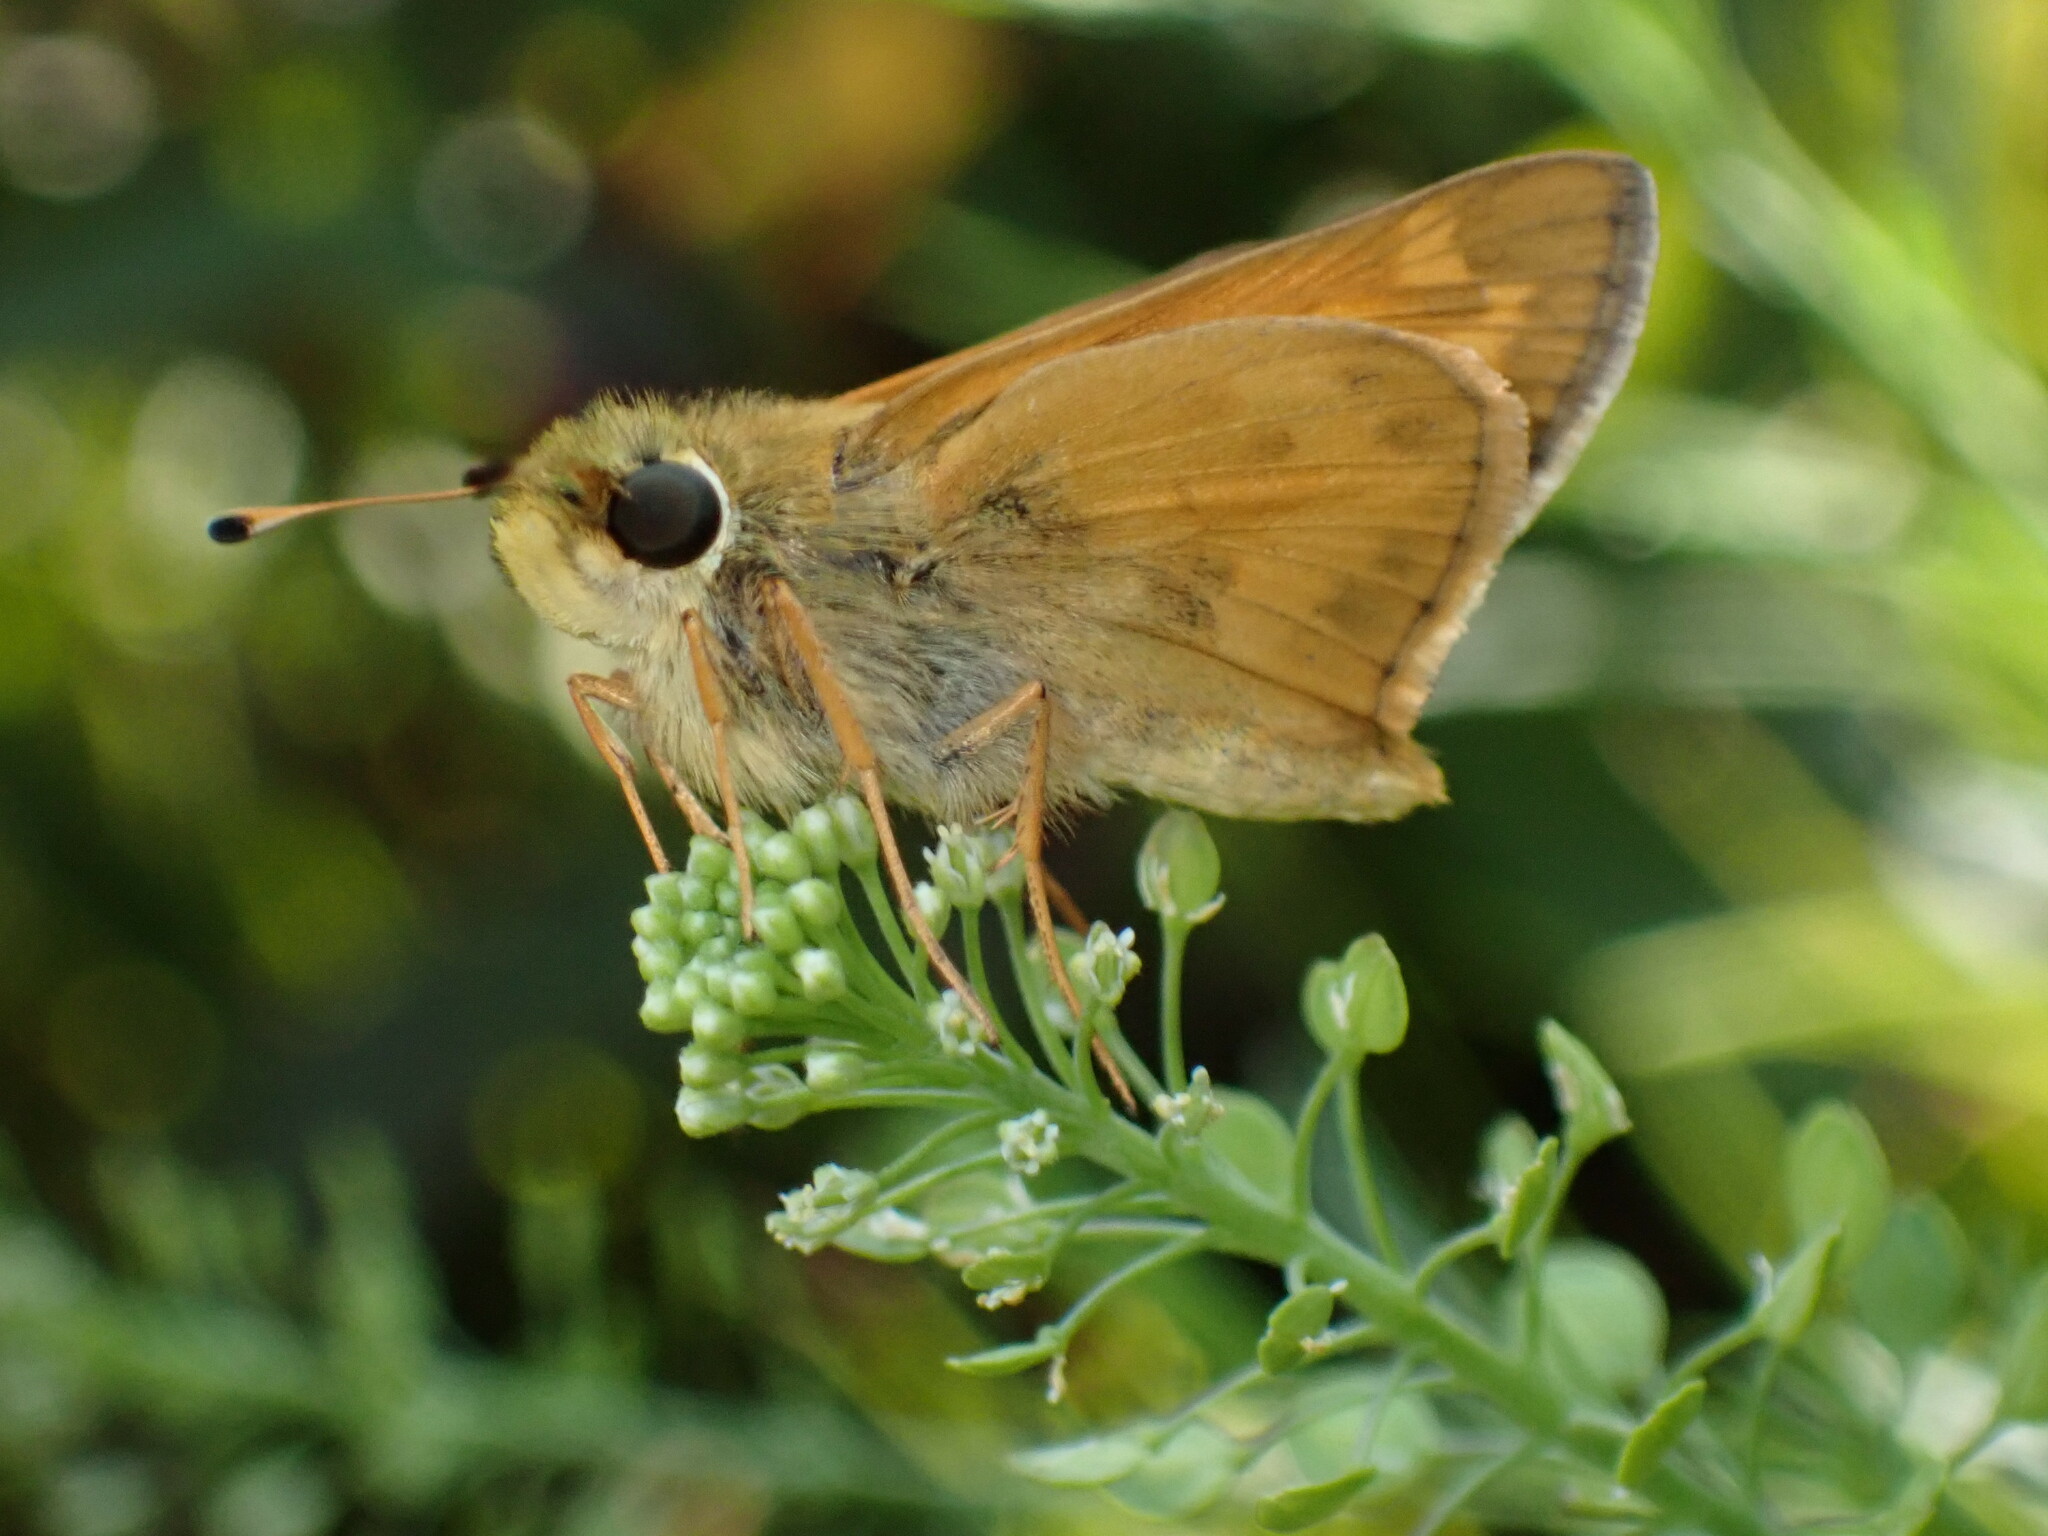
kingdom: Animalia
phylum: Arthropoda
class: Insecta
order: Lepidoptera
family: Hesperiidae
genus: Atalopedes
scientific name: Atalopedes
